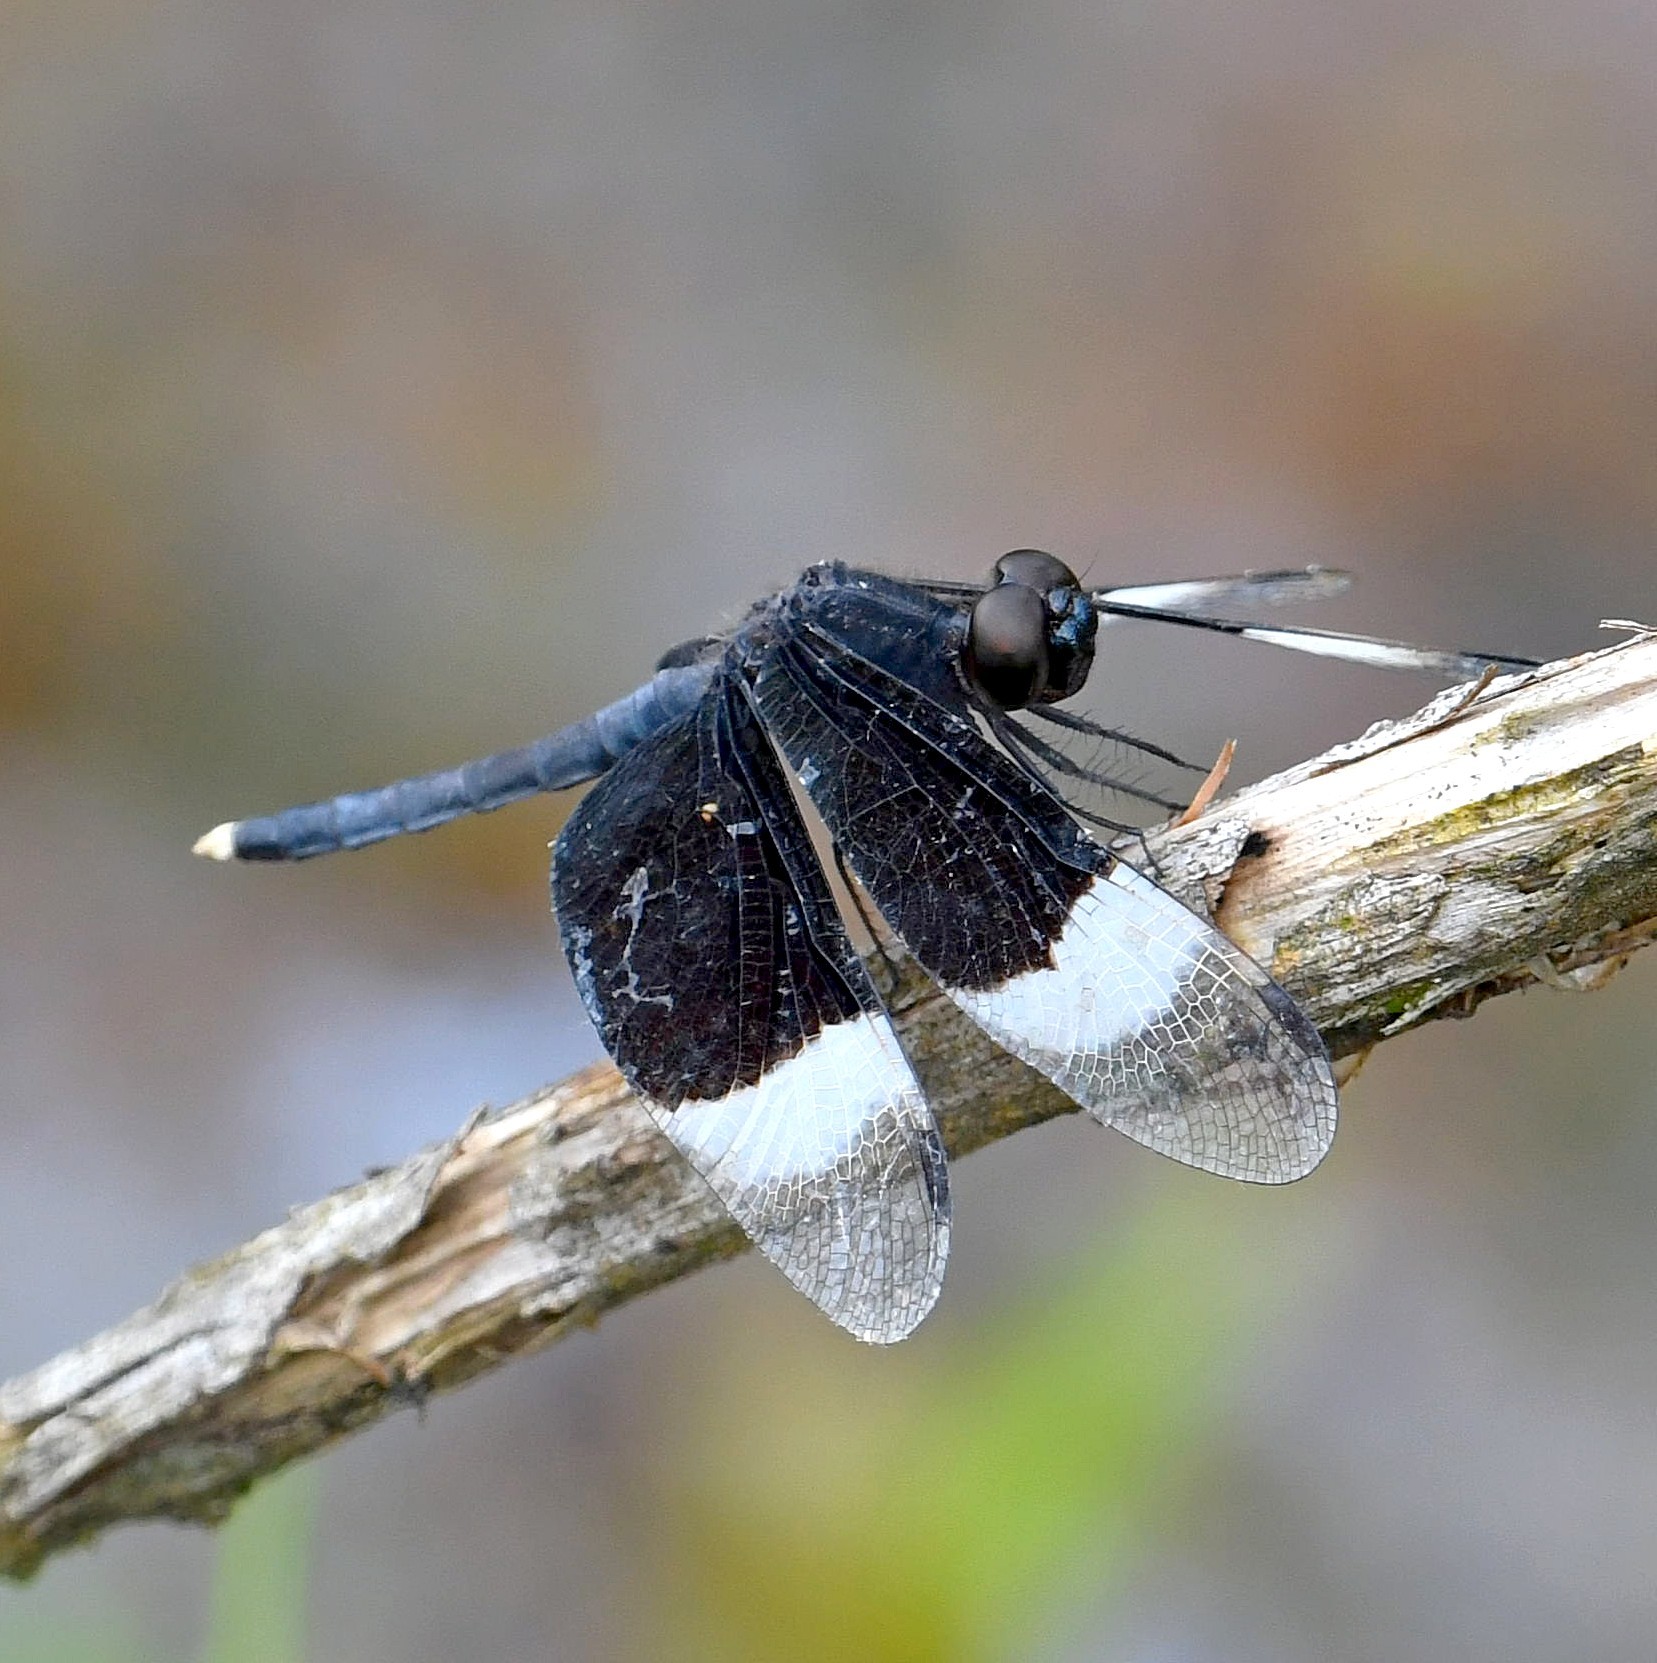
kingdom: Animalia
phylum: Arthropoda
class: Insecta
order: Odonata
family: Libellulidae
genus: Neurothemis
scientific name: Neurothemis tullia
